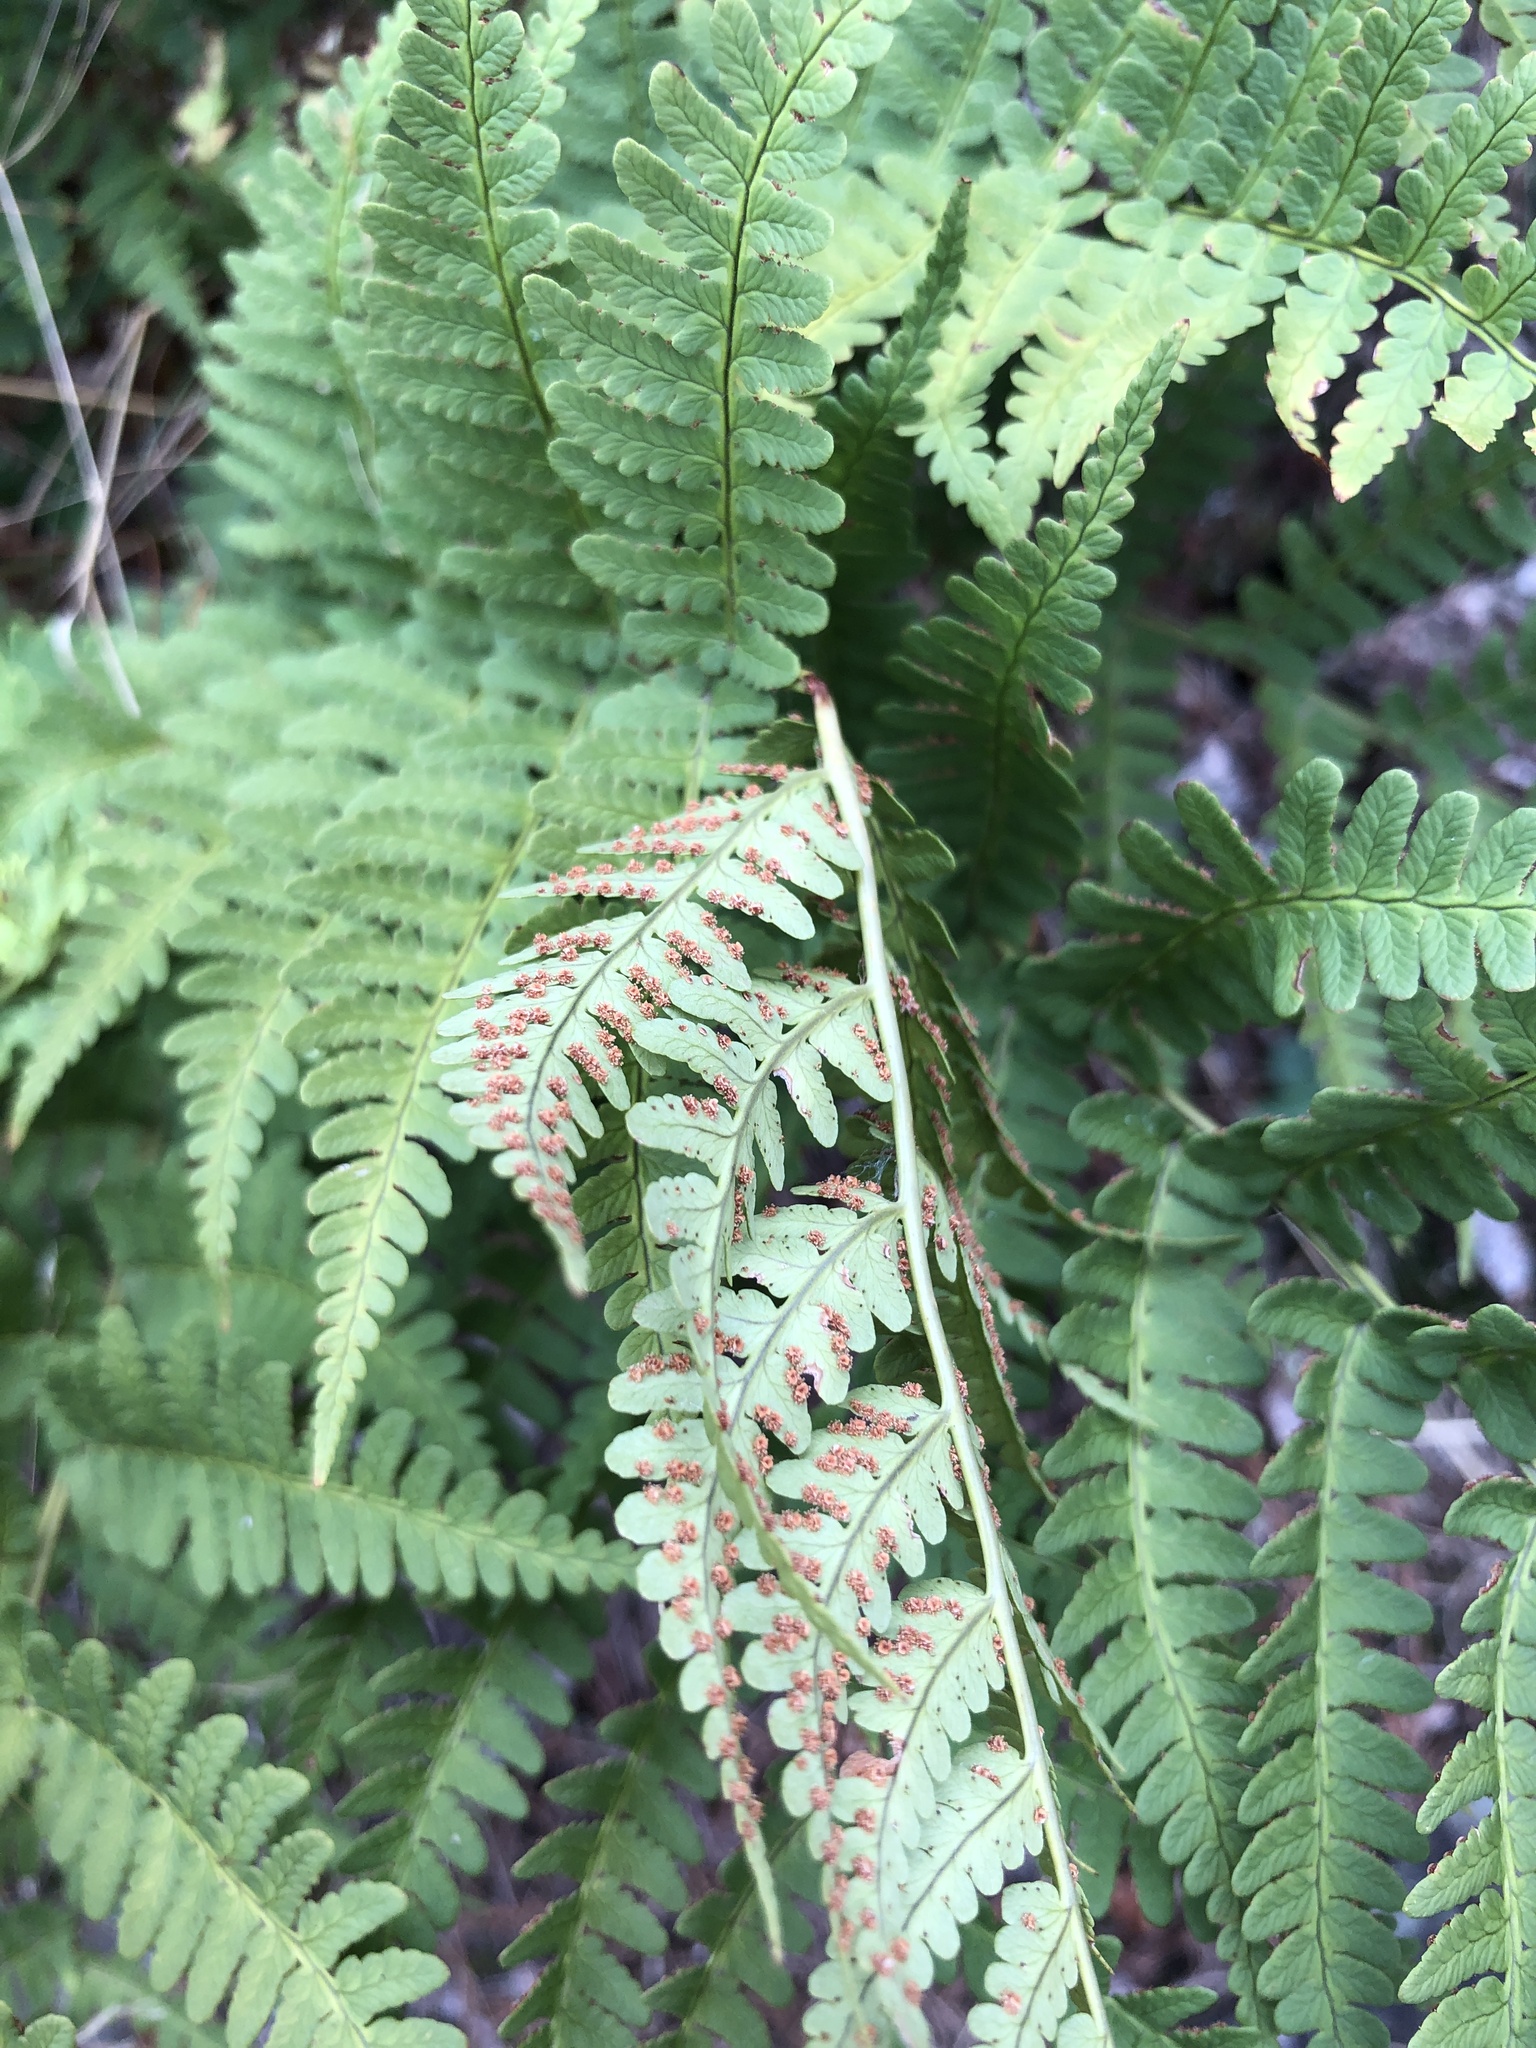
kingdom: Plantae
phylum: Tracheophyta
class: Polypodiopsida
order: Polypodiales
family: Dryopteridaceae
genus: Dryopteris
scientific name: Dryopteris marginalis
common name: Marginal wood fern
